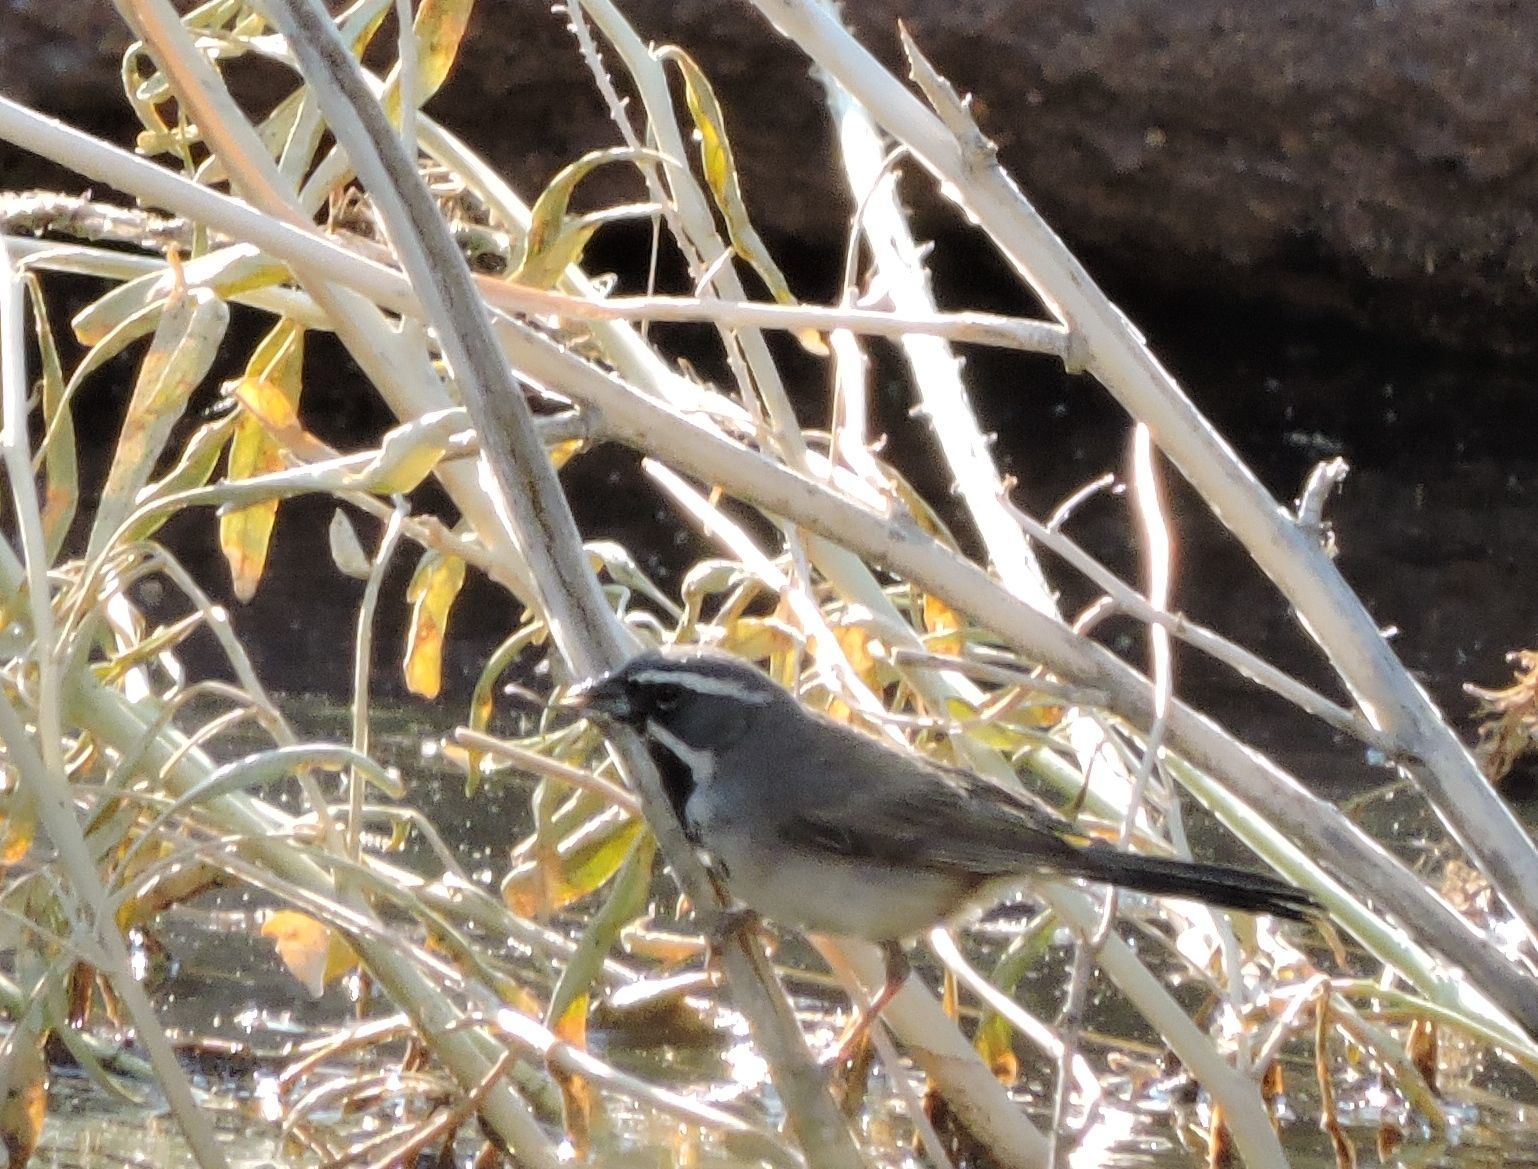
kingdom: Animalia
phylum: Chordata
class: Aves
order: Passeriformes
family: Passerellidae
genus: Amphispiza
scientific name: Amphispiza bilineata
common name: Black-throated sparrow
